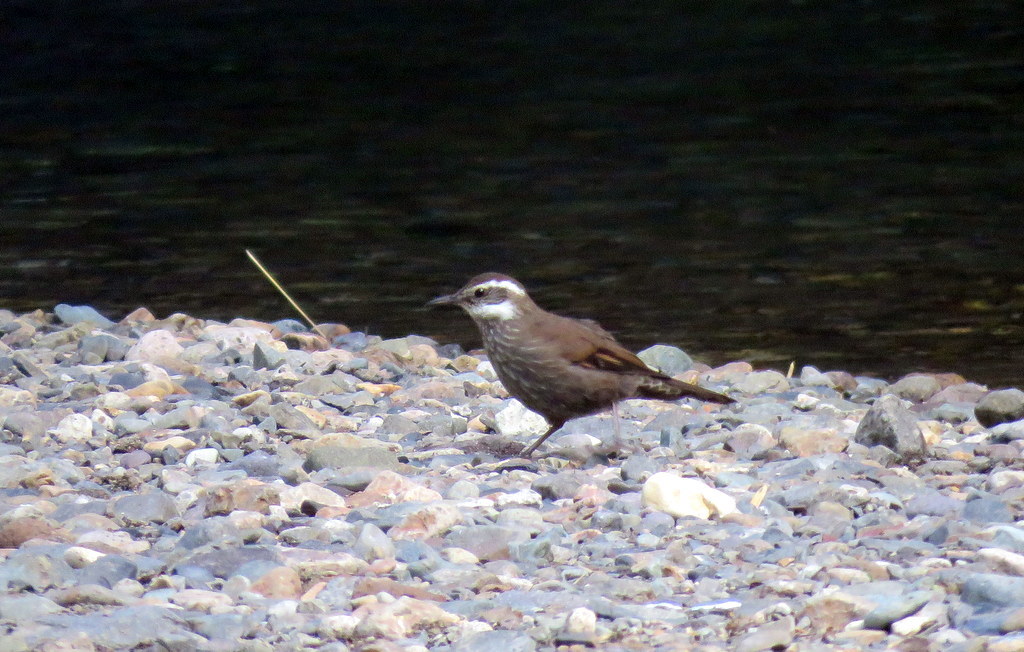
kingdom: Animalia
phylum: Chordata
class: Aves
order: Passeriformes
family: Furnariidae
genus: Cinclodes
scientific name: Cinclodes patagonicus
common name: Dark-bellied cinclodes
